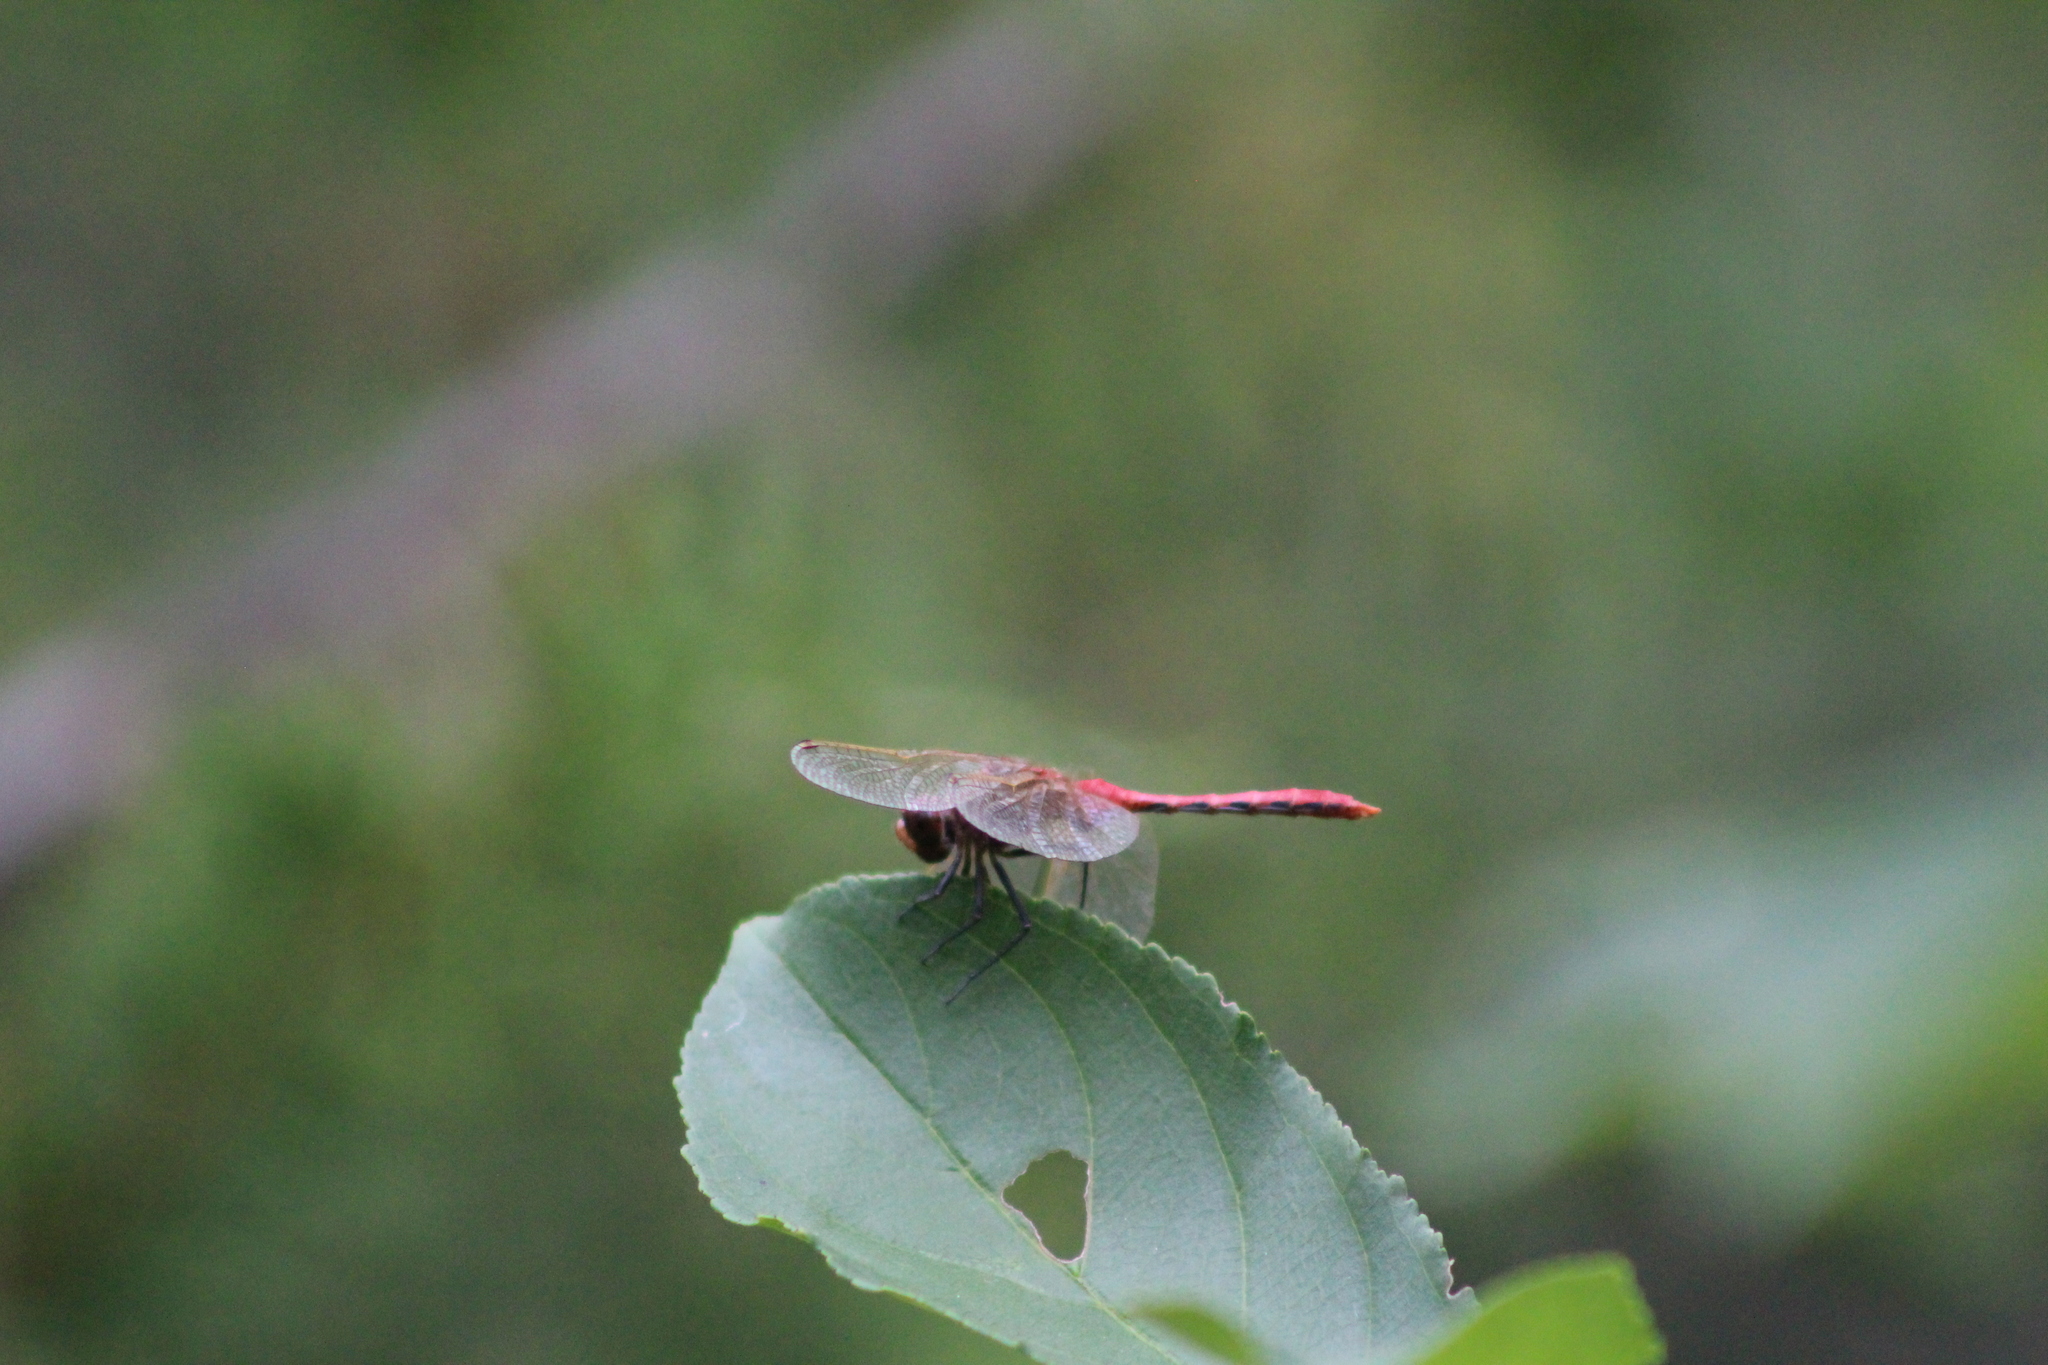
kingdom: Animalia
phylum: Arthropoda
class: Insecta
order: Odonata
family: Libellulidae
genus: Sympetrum
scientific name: Sympetrum internum
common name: Cherry-faced meadowhawk
